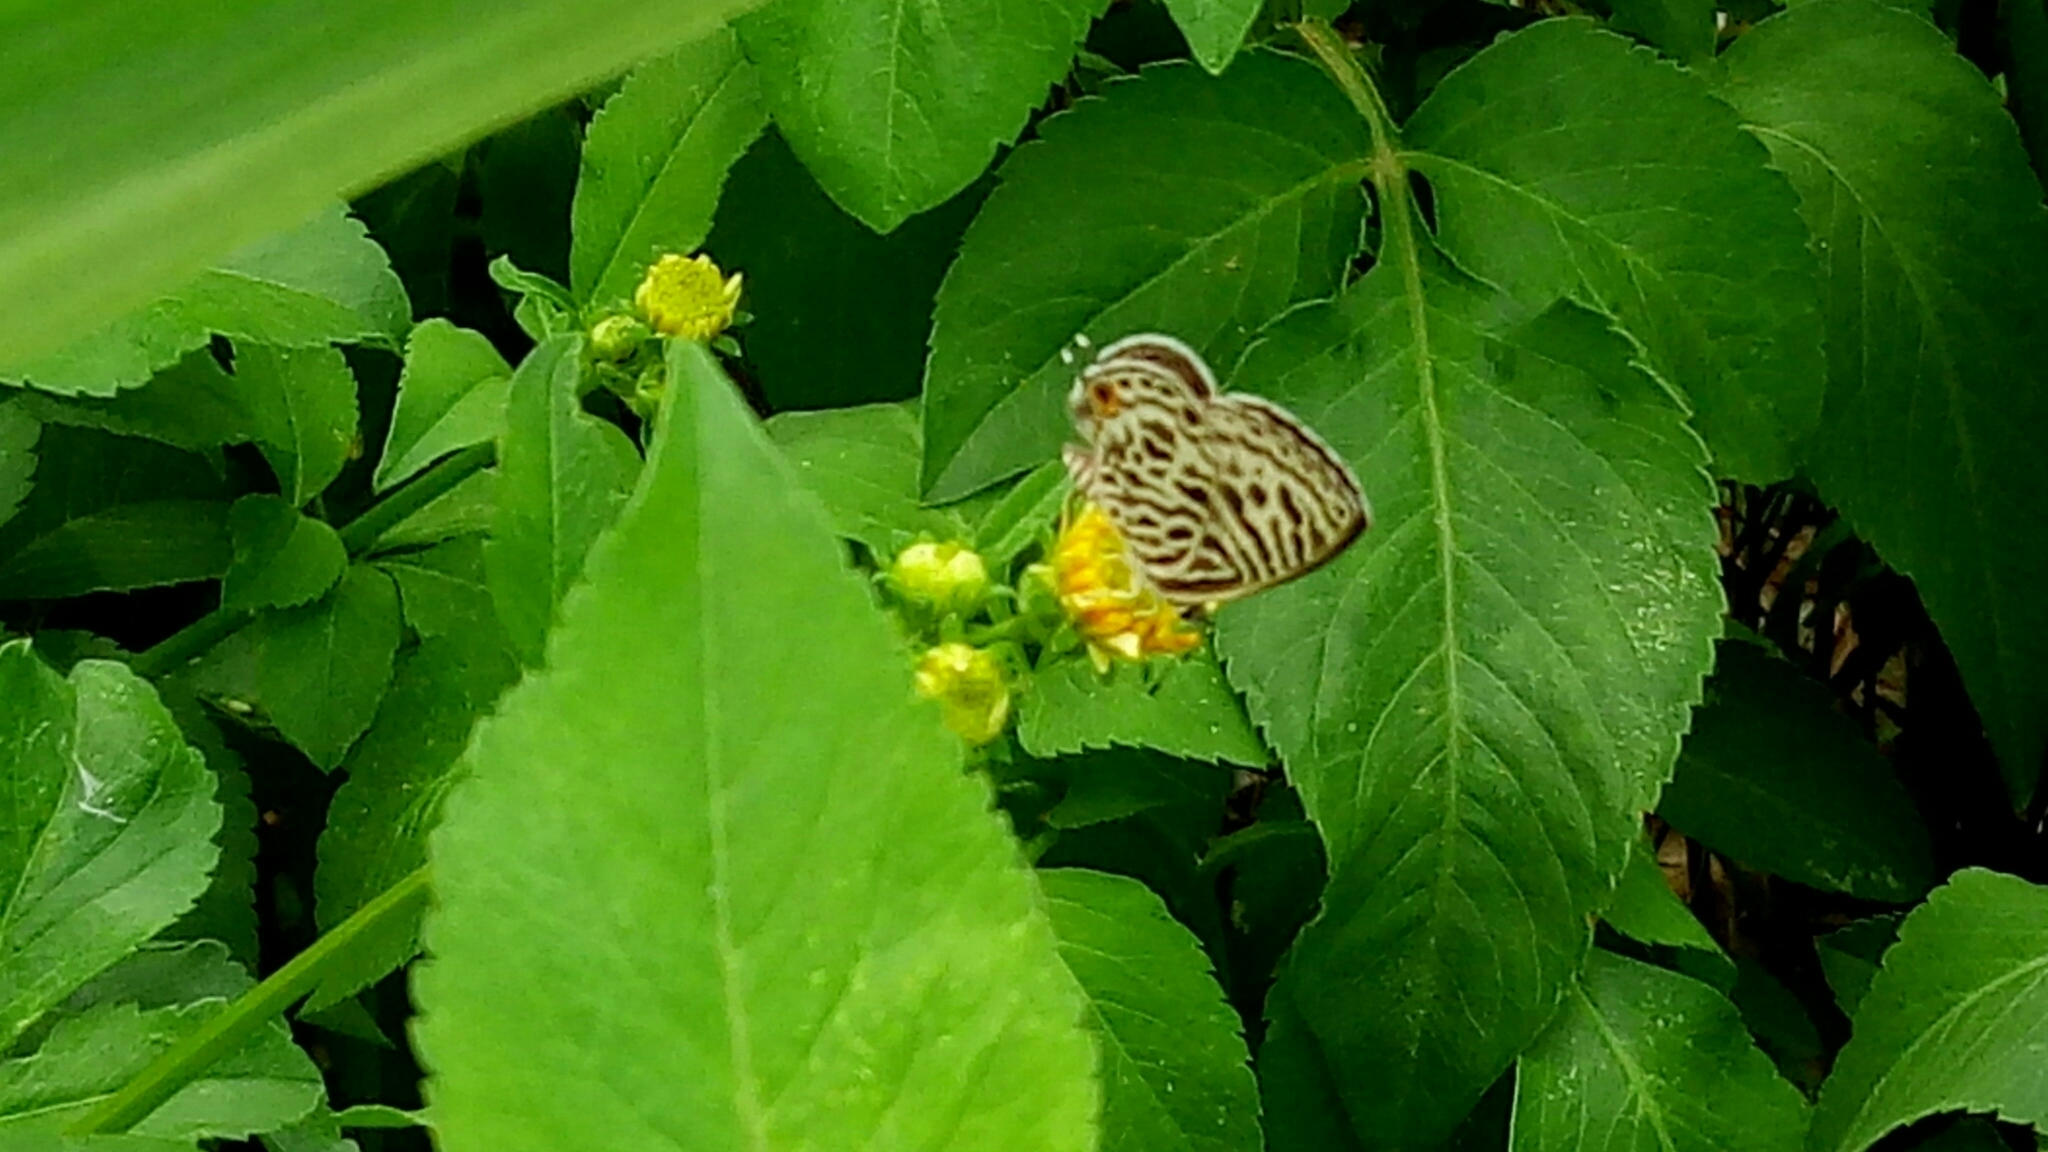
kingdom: Animalia
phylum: Arthropoda
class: Insecta
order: Lepidoptera
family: Lycaenidae
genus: Leptotes
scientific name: Leptotes plinius
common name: Zebra blue
